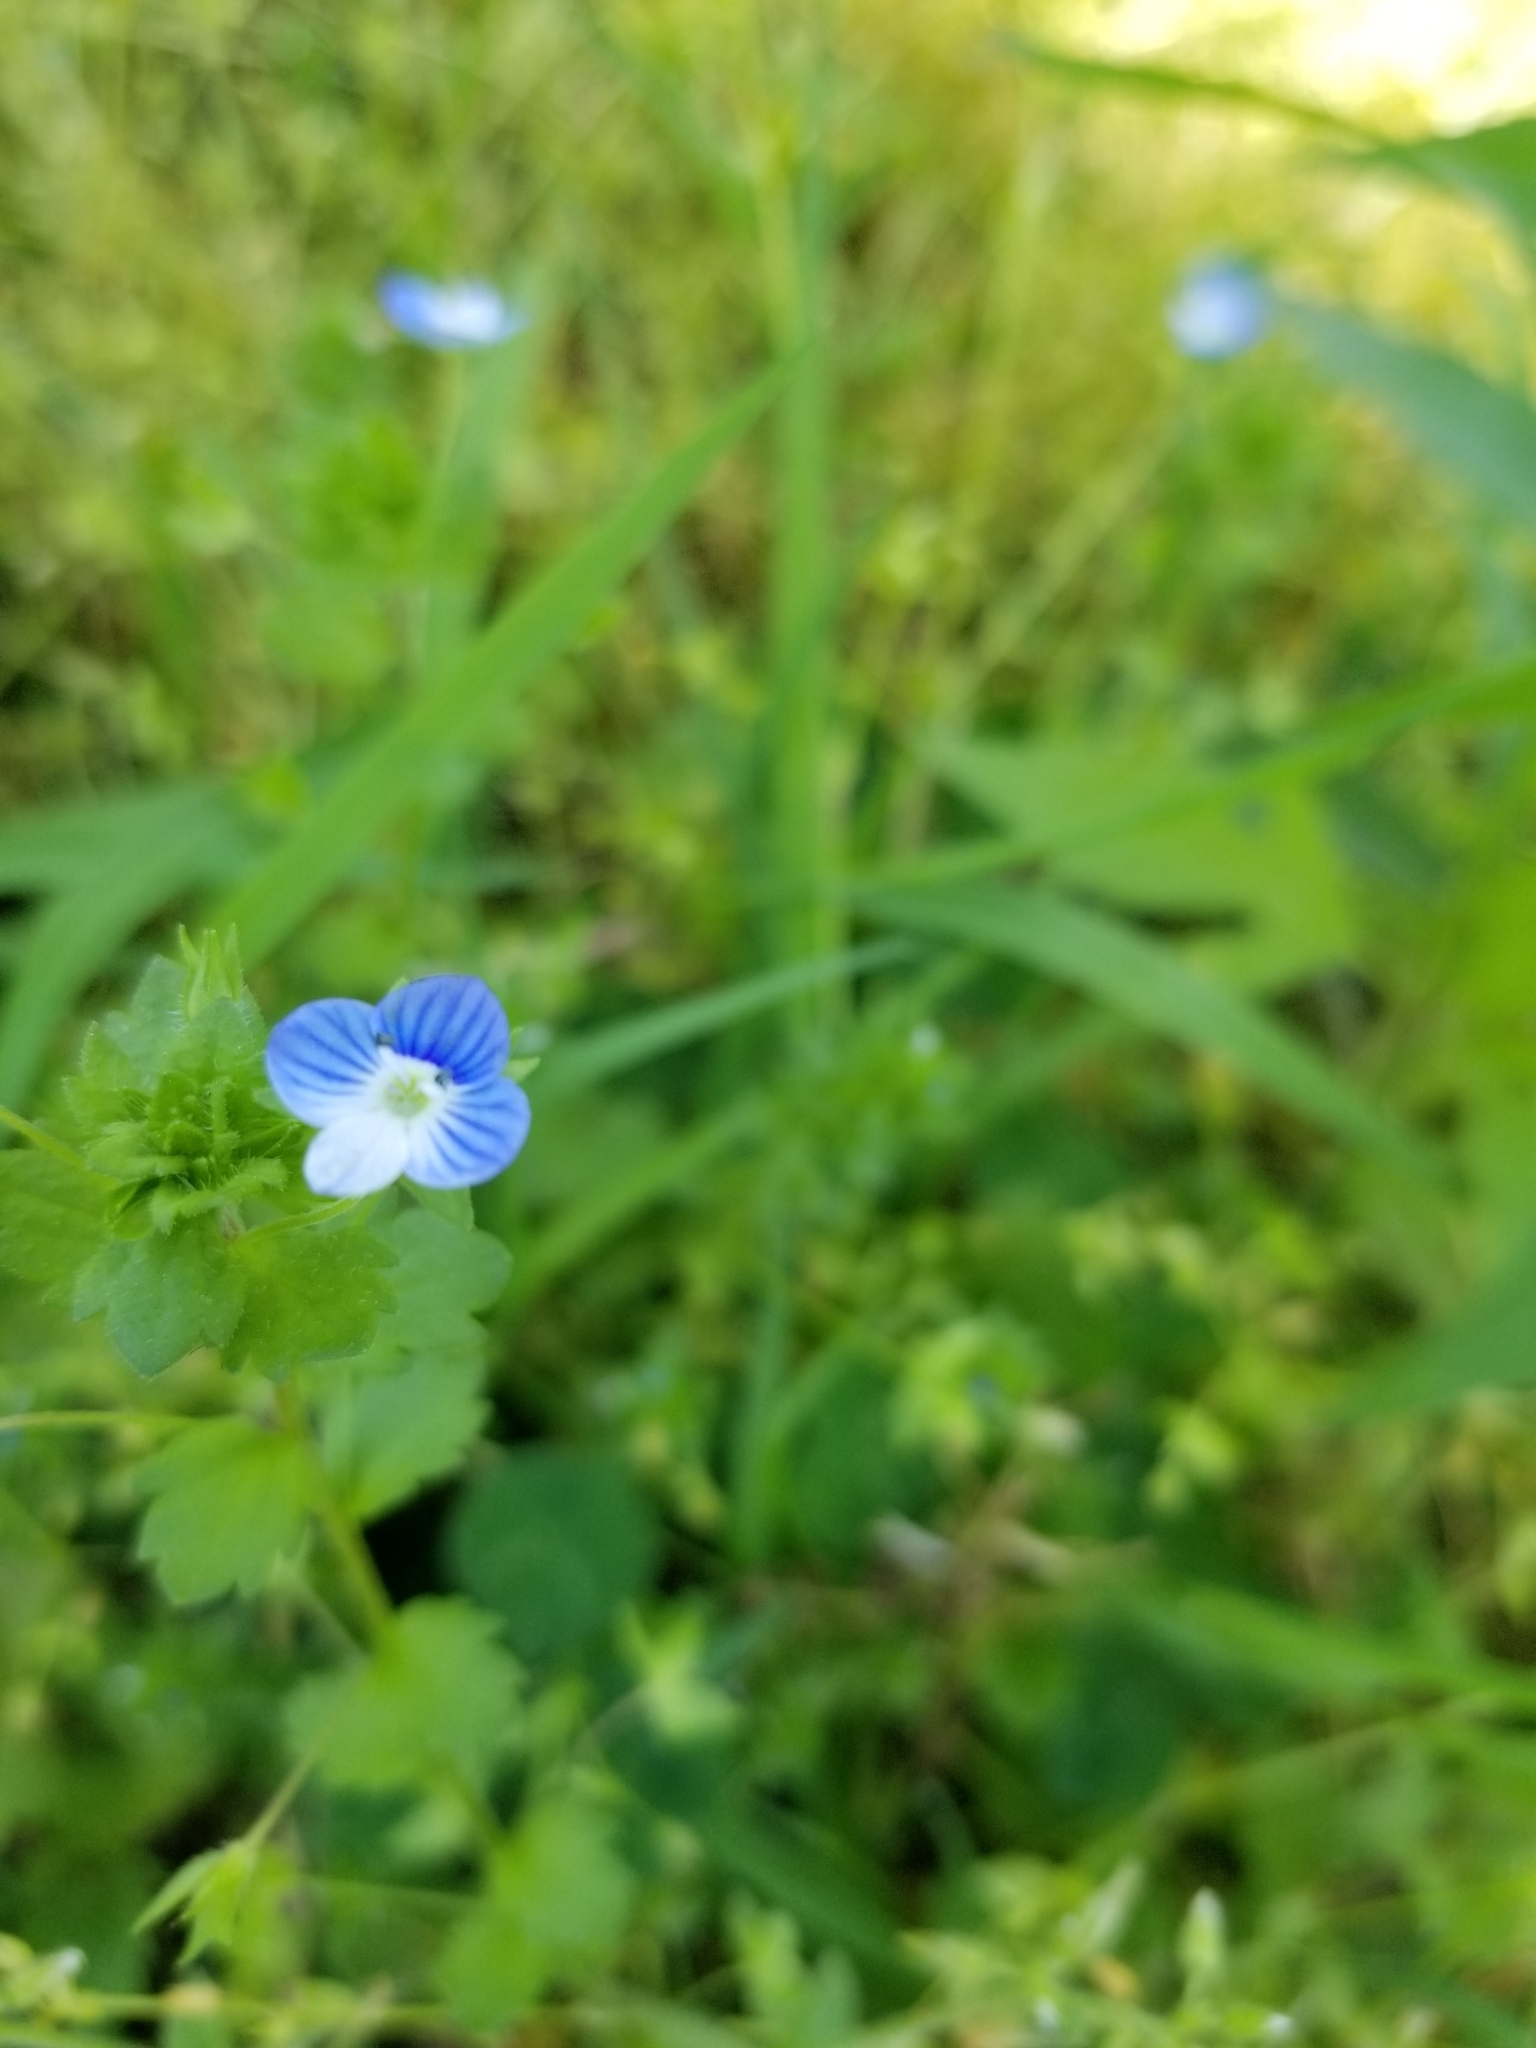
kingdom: Plantae
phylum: Tracheophyta
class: Magnoliopsida
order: Lamiales
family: Plantaginaceae
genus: Veronica
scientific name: Veronica persica
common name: Common field-speedwell
